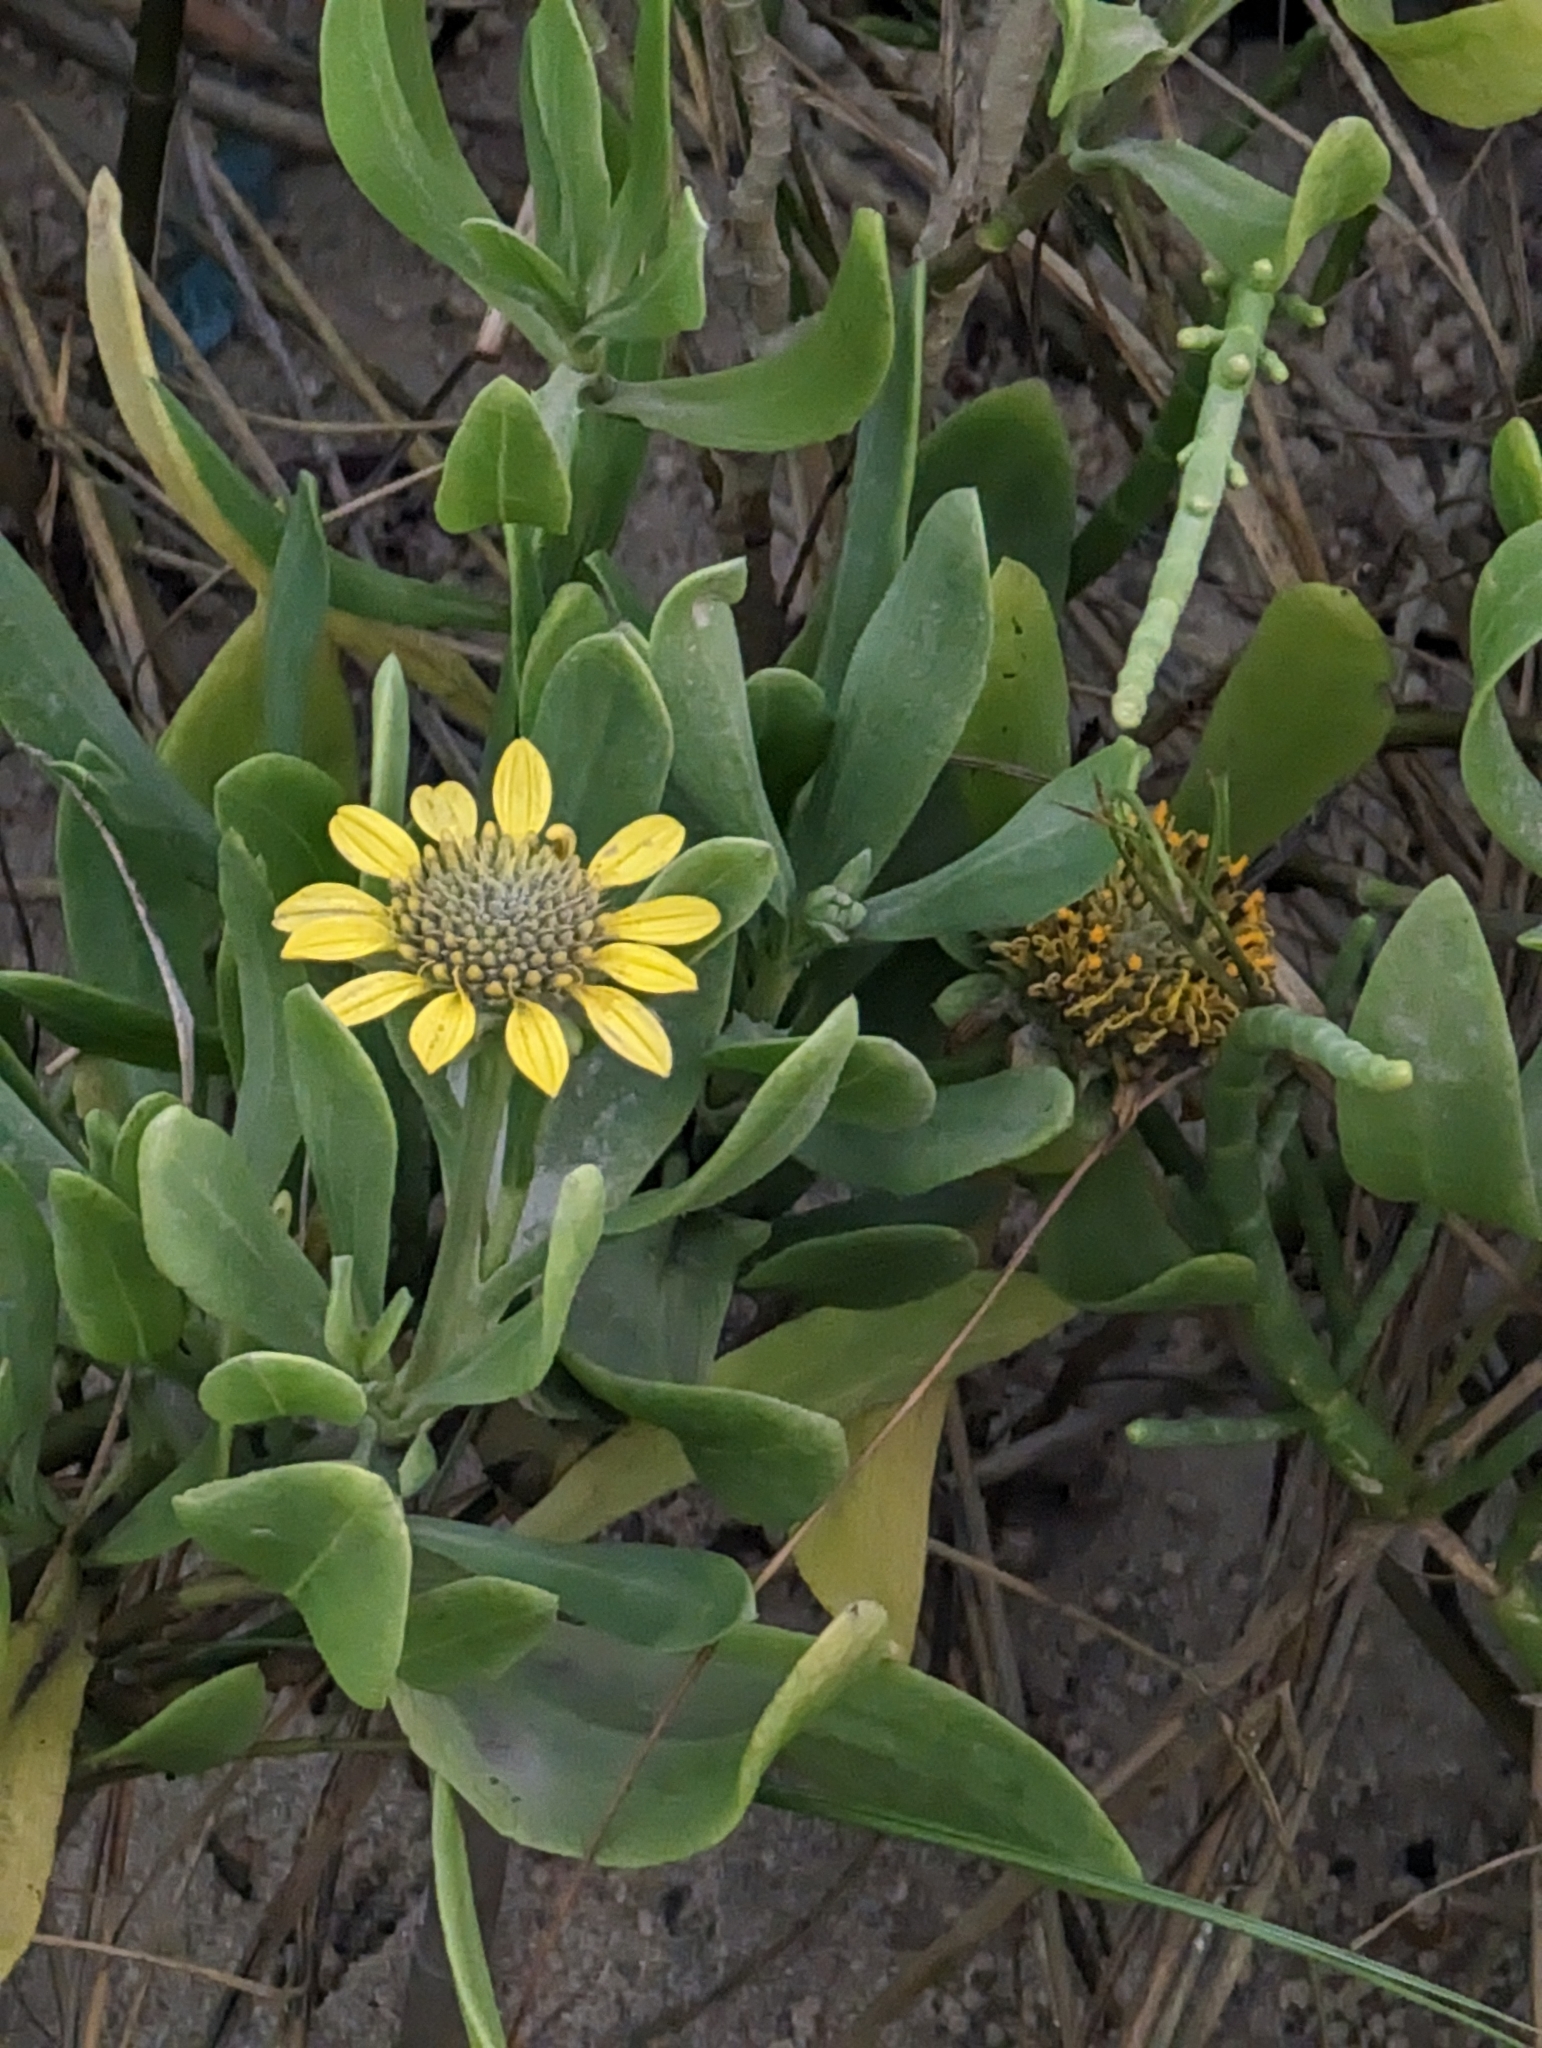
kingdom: Plantae
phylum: Tracheophyta
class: Magnoliopsida
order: Asterales
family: Asteraceae
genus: Borrichia
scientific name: Borrichia frutescens
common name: Sea oxeye
